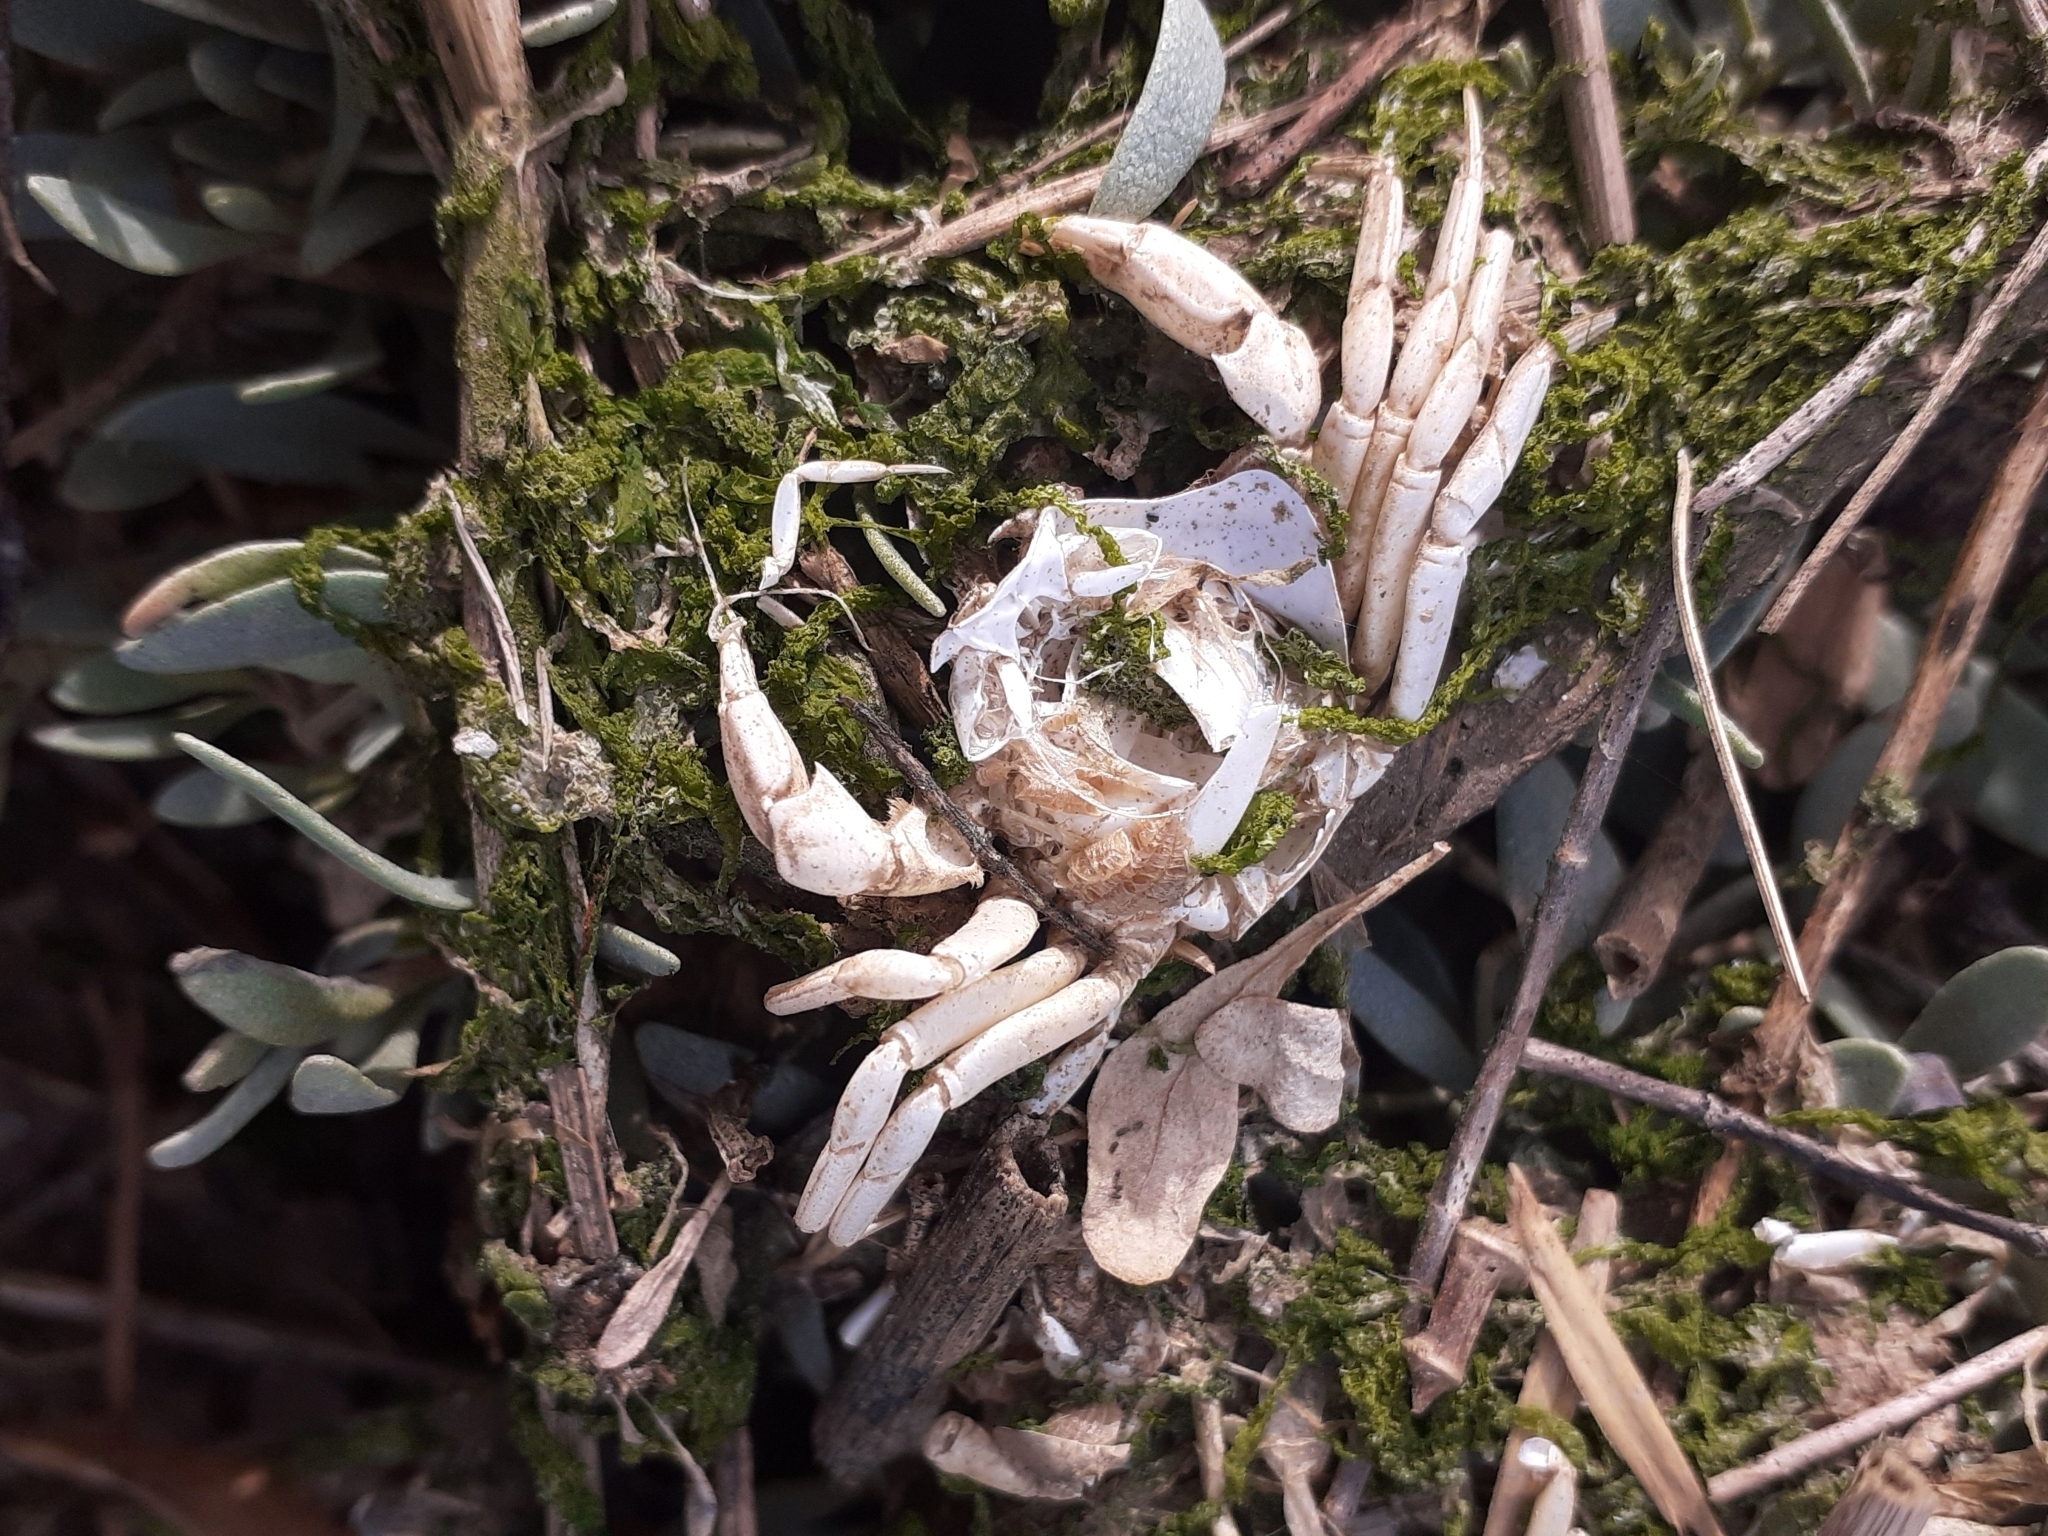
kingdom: Animalia
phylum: Arthropoda
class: Malacostraca
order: Decapoda
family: Carcinidae
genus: Carcinus
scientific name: Carcinus maenas
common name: European green crab
